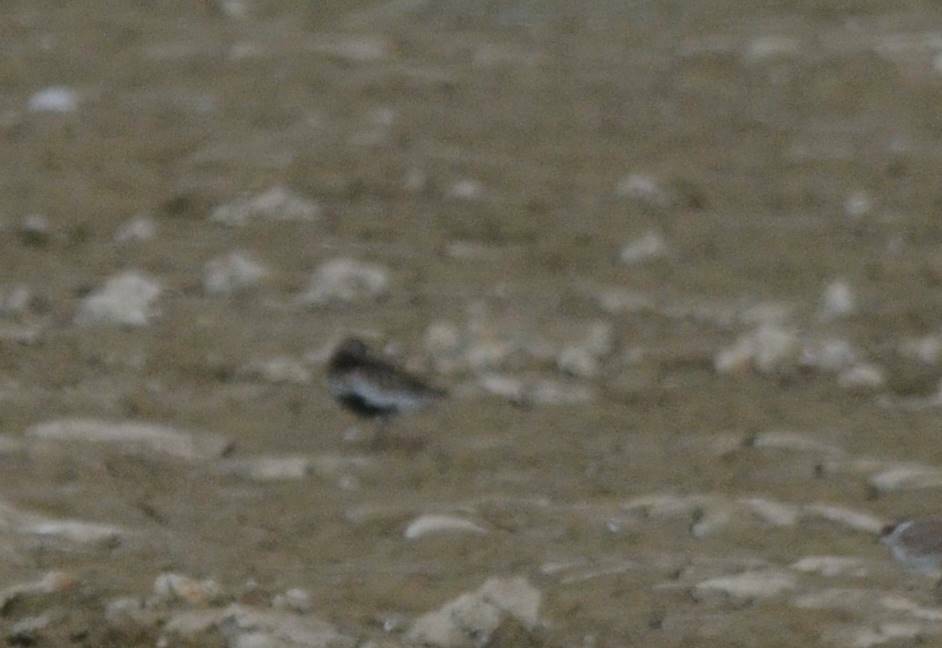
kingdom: Animalia
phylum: Chordata
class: Aves
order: Charadriiformes
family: Scolopacidae
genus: Calidris
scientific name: Calidris alpina
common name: Dunlin
